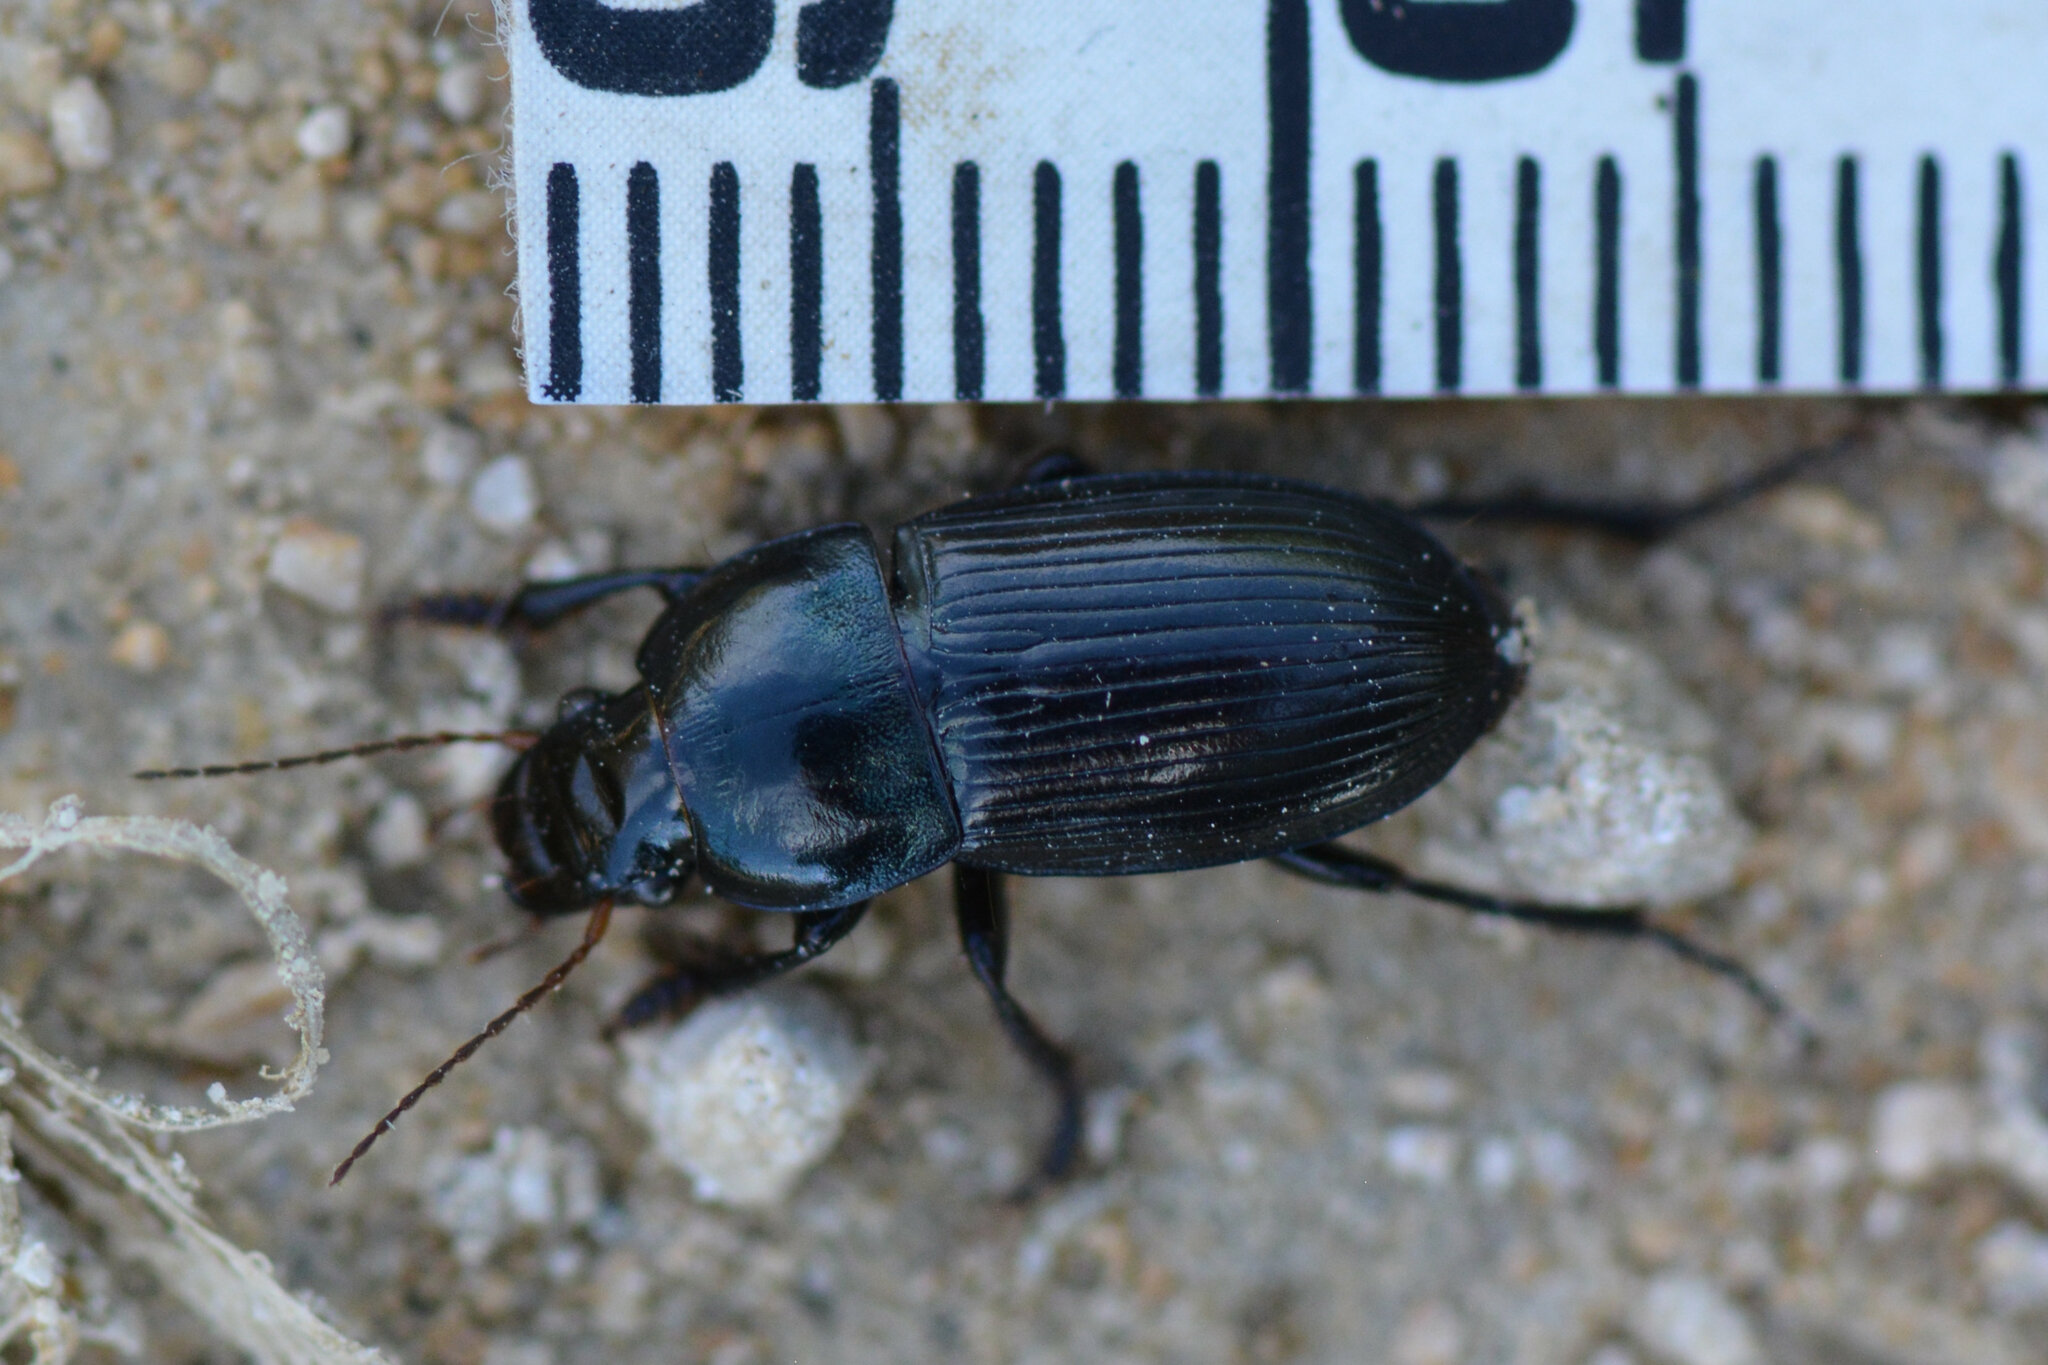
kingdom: Animalia
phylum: Arthropoda
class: Insecta
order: Coleoptera
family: Carabidae
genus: Harpalus
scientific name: Harpalus dimidiatus
